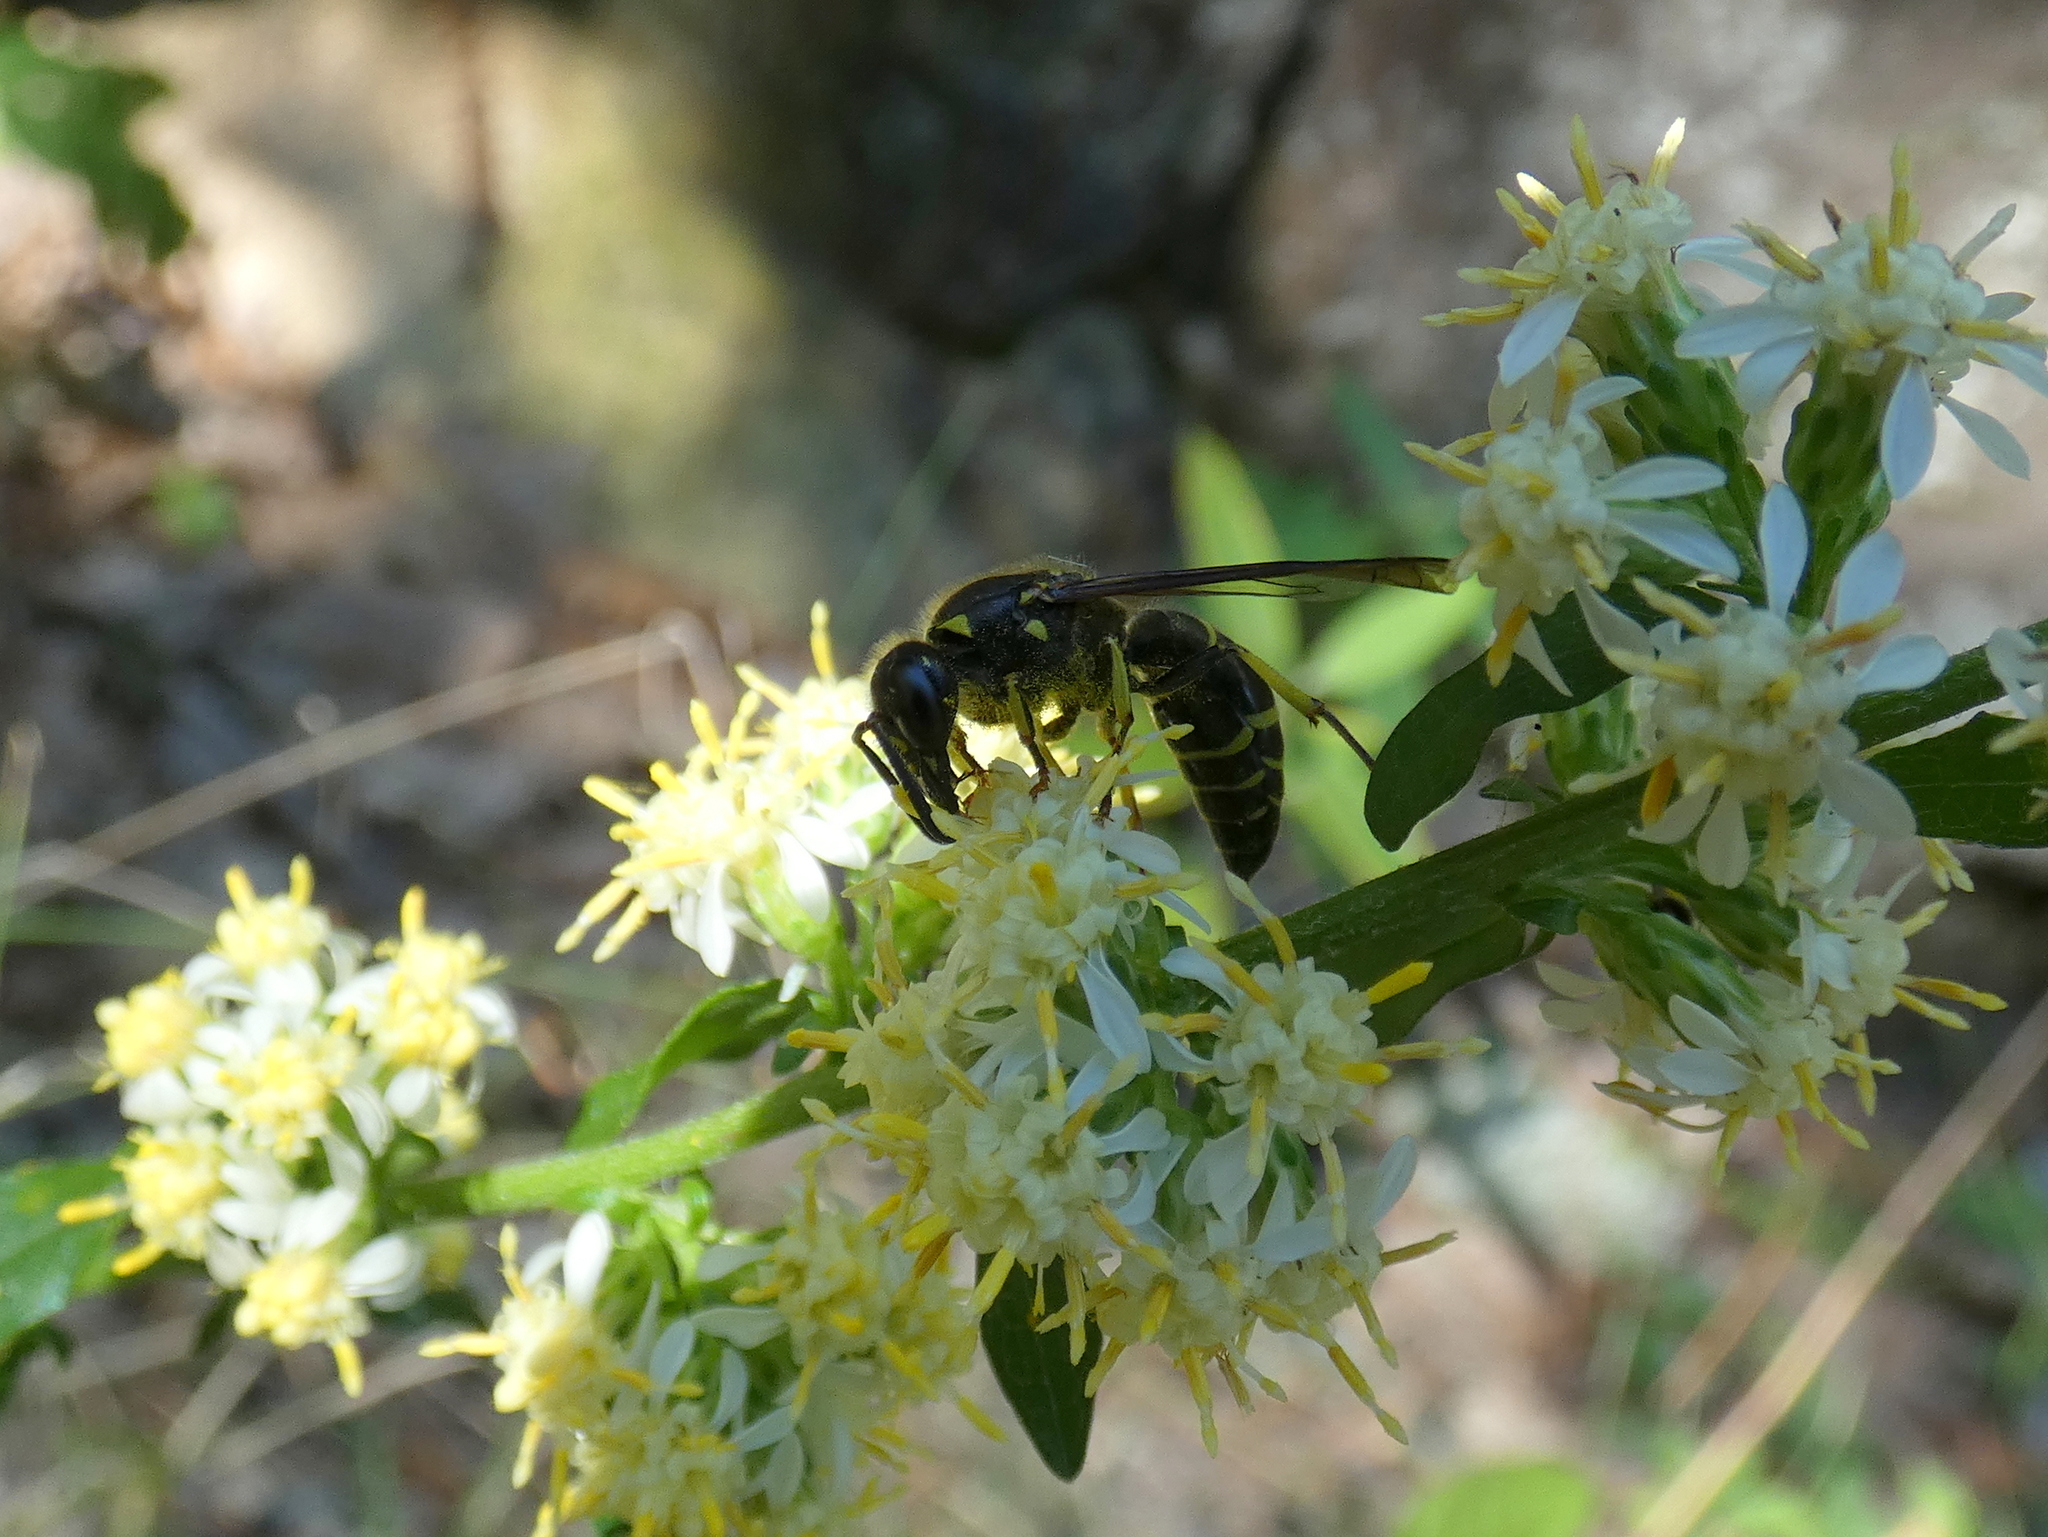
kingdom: Animalia
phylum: Arthropoda
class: Insecta
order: Hymenoptera
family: Vespidae
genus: Ancistrocerus
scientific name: Ancistrocerus
